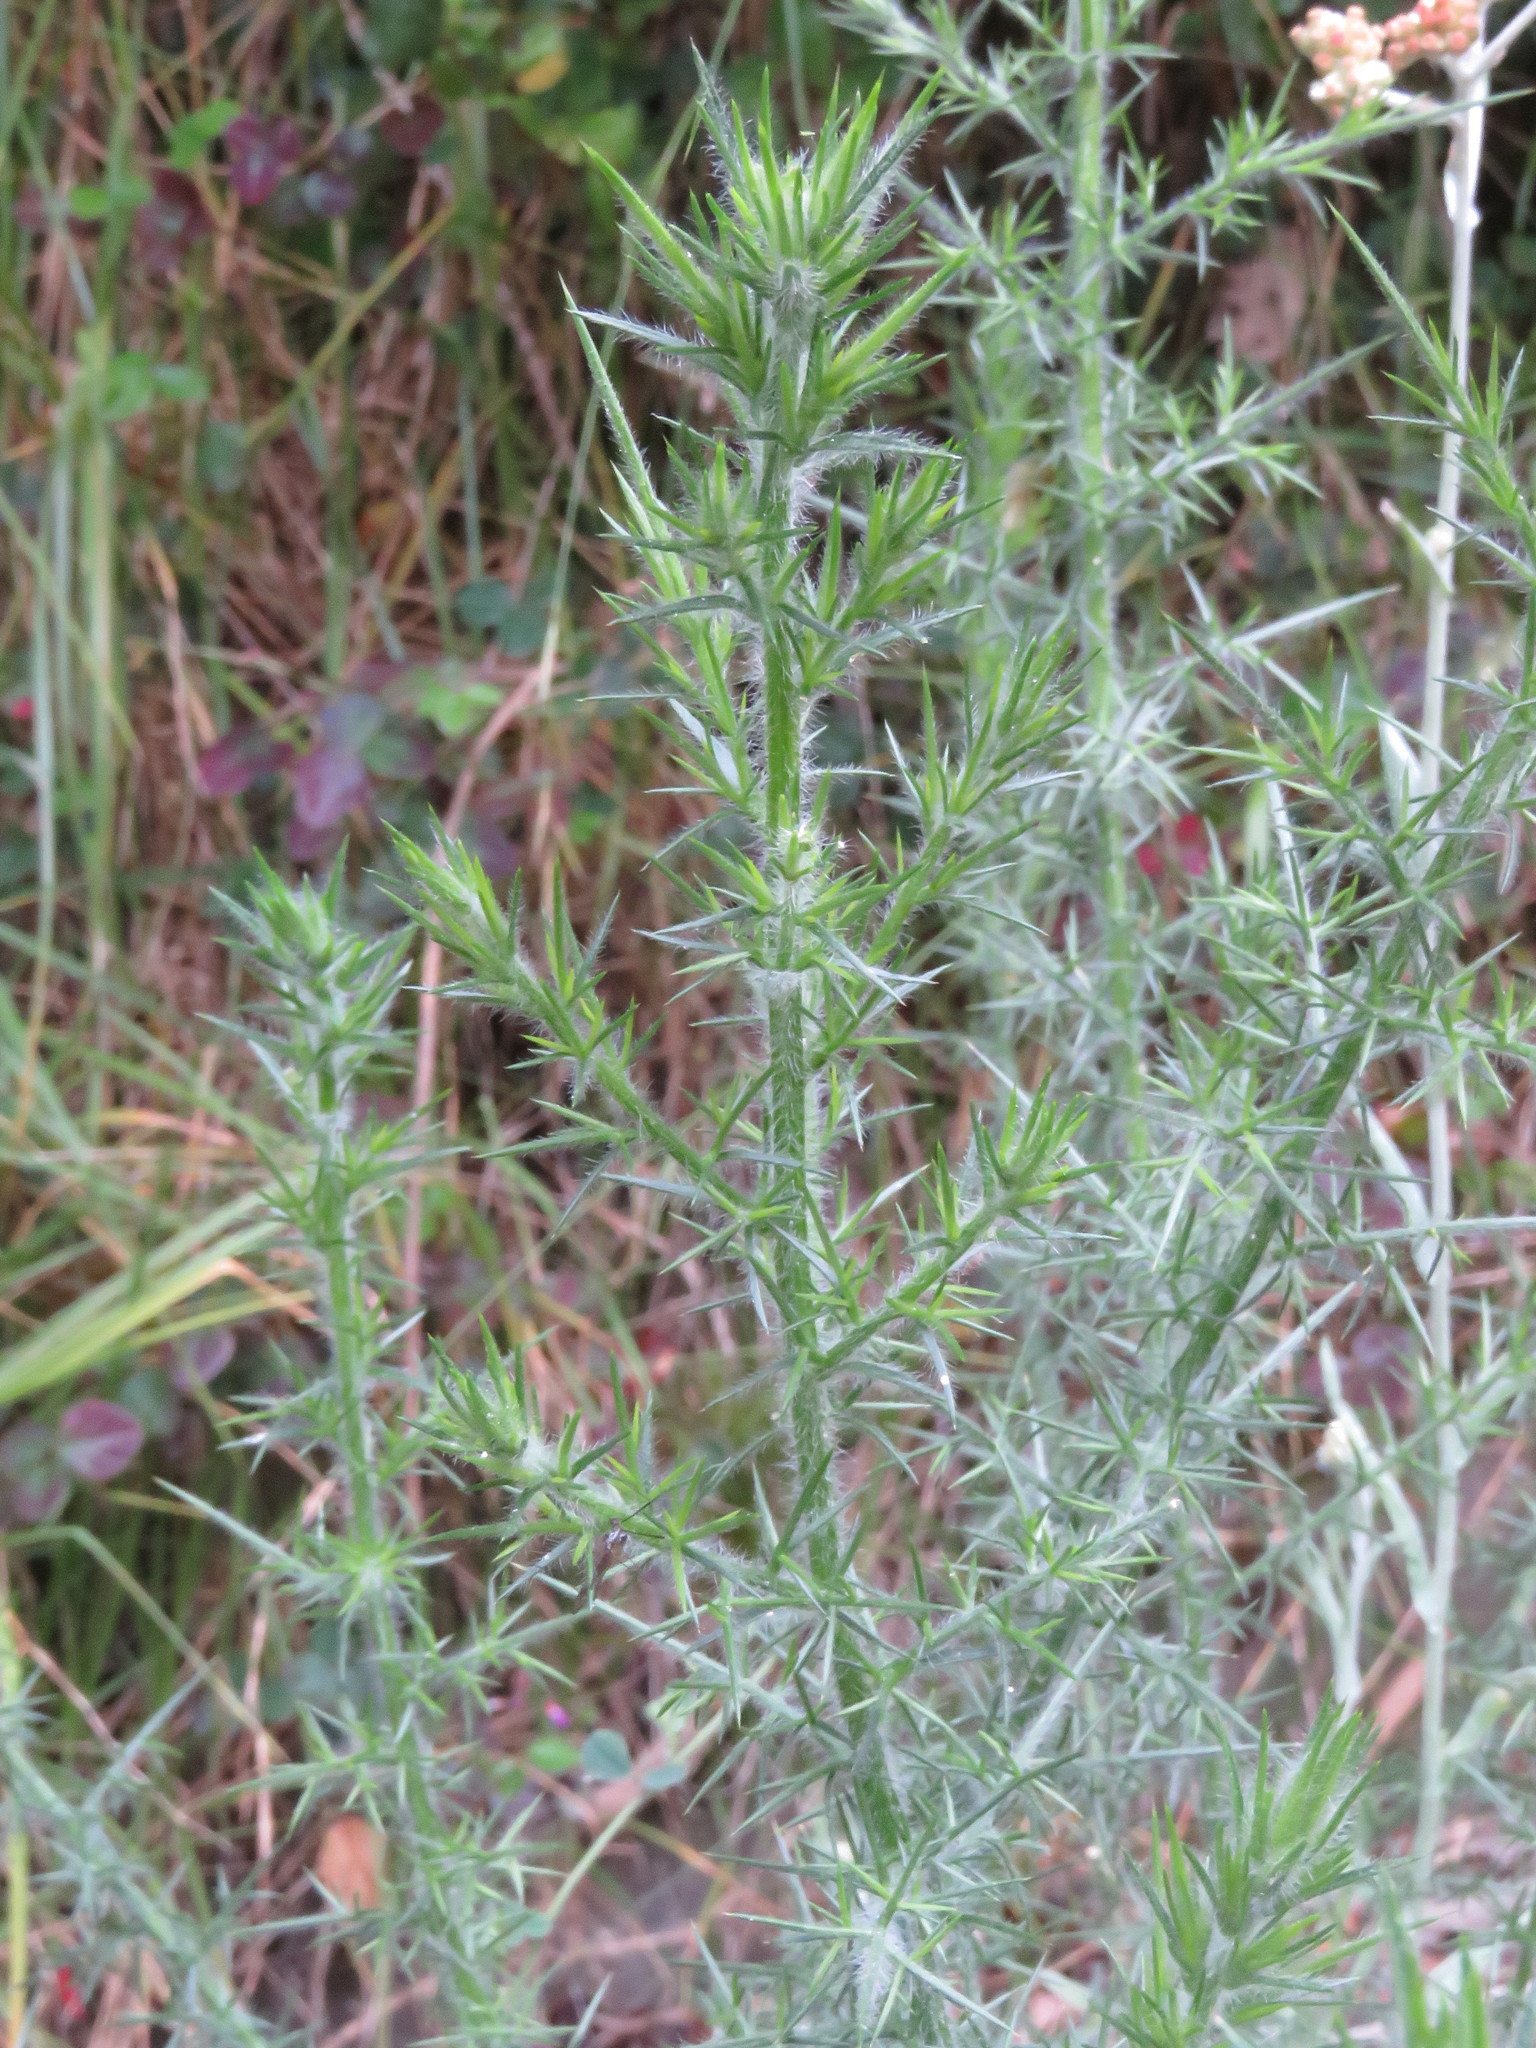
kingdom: Plantae
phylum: Tracheophyta
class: Magnoliopsida
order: Fabales
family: Fabaceae
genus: Ulex
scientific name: Ulex europaeus
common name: Common gorse
